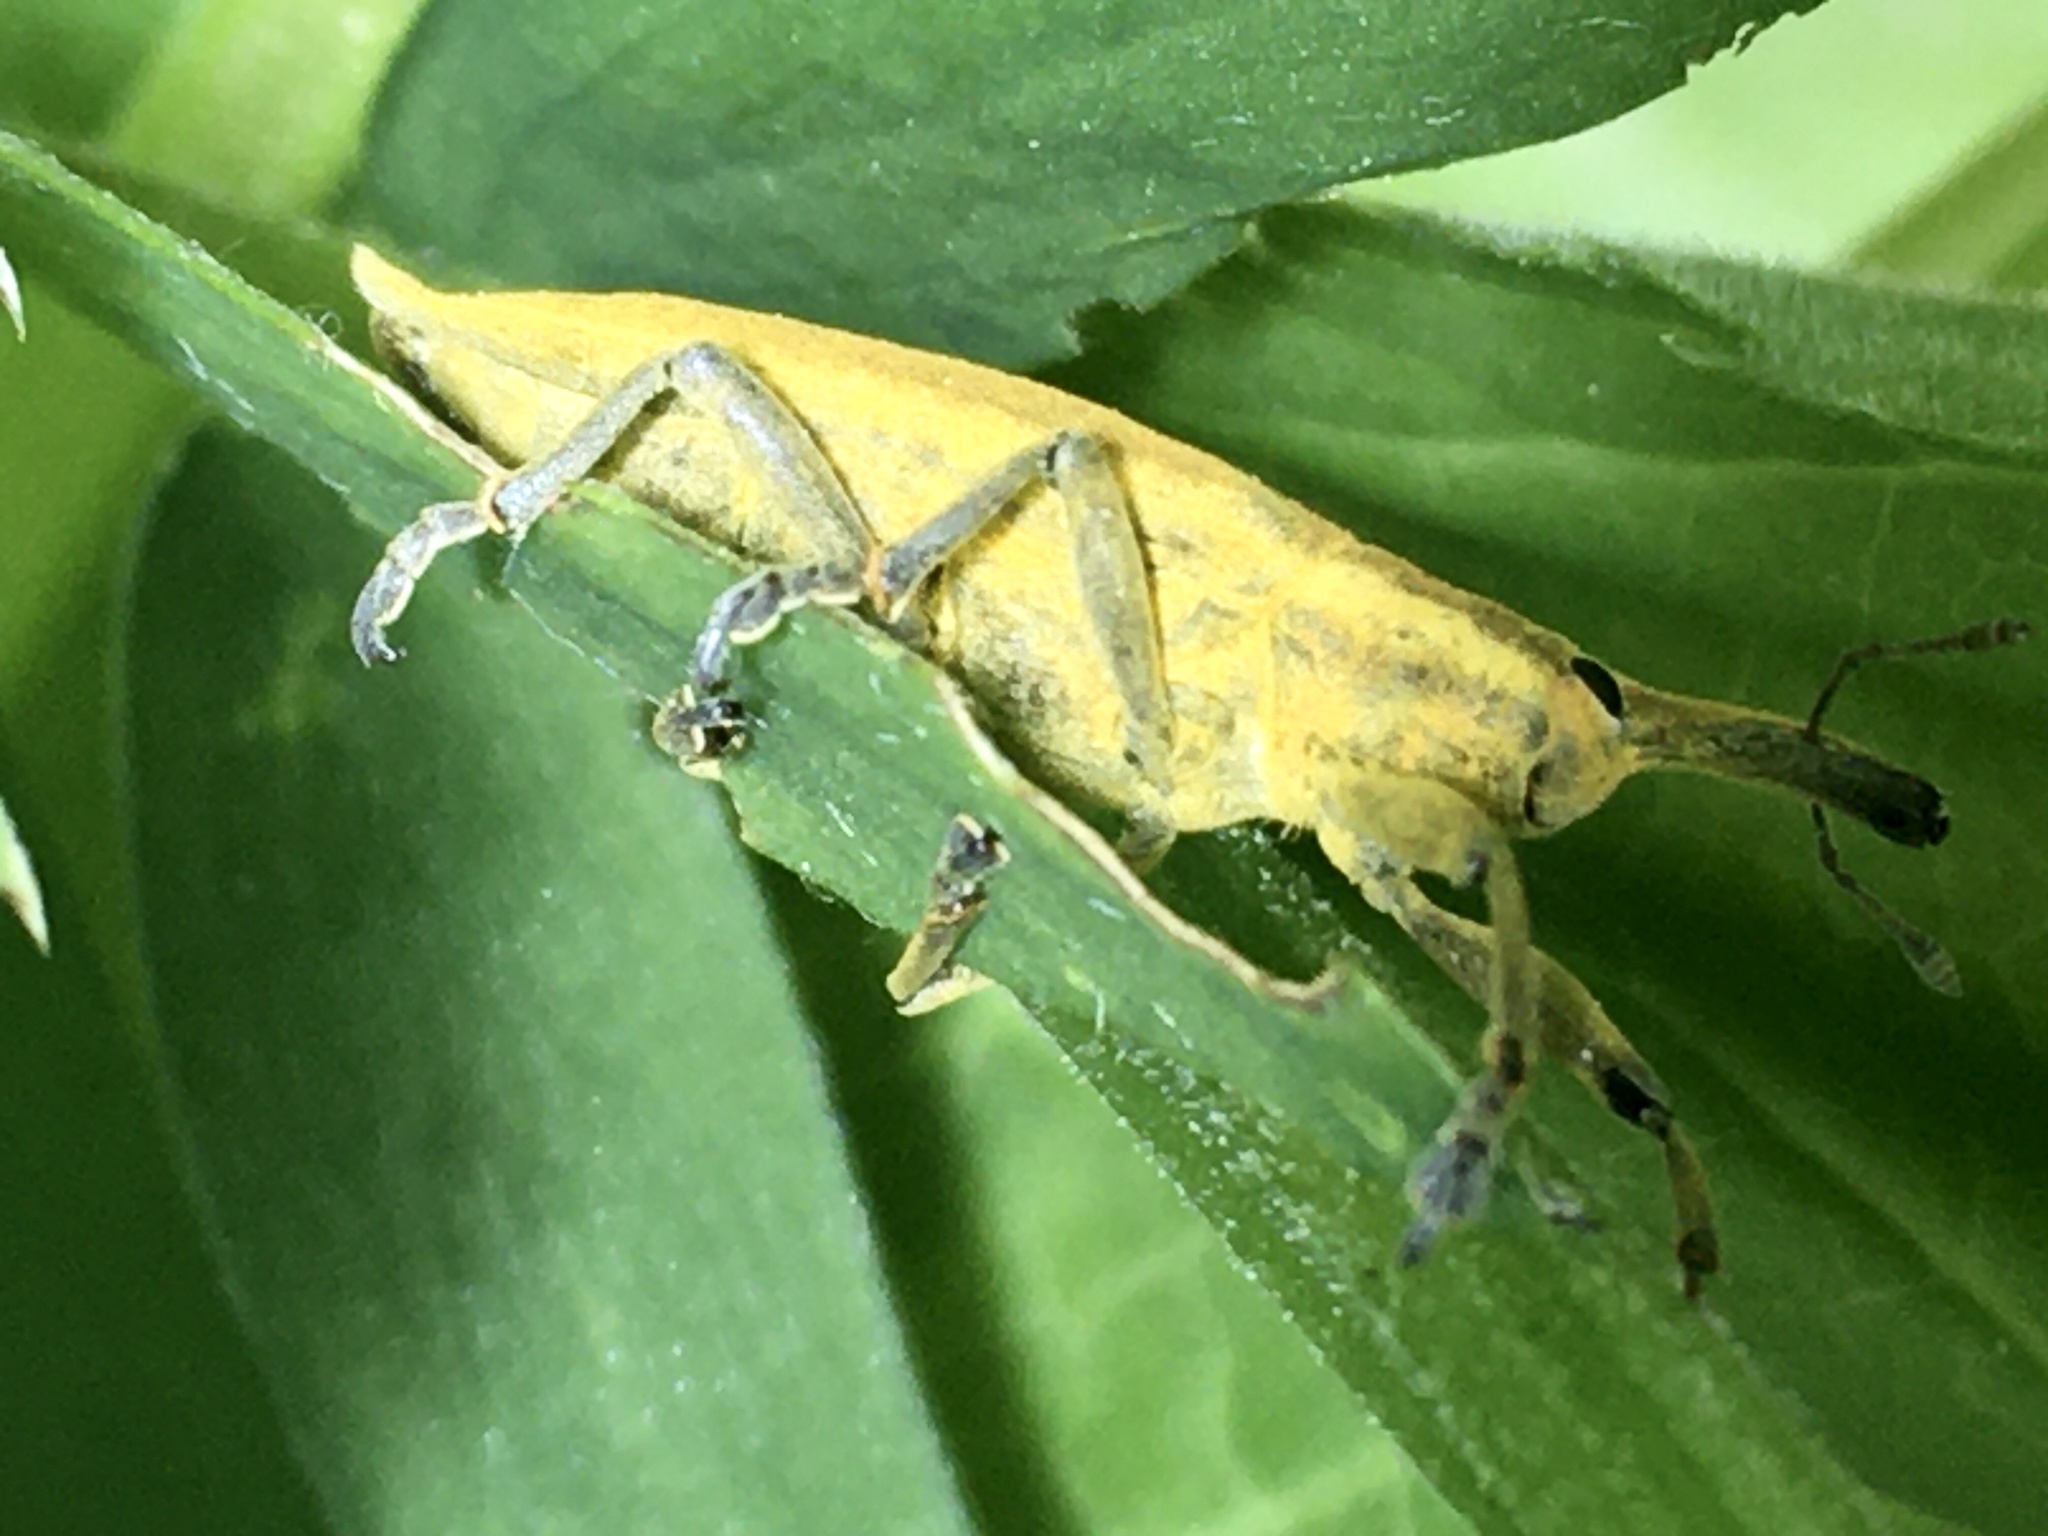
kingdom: Animalia
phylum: Arthropoda
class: Insecta
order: Coleoptera
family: Curculionidae
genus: Lixus
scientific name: Lixus iridis
